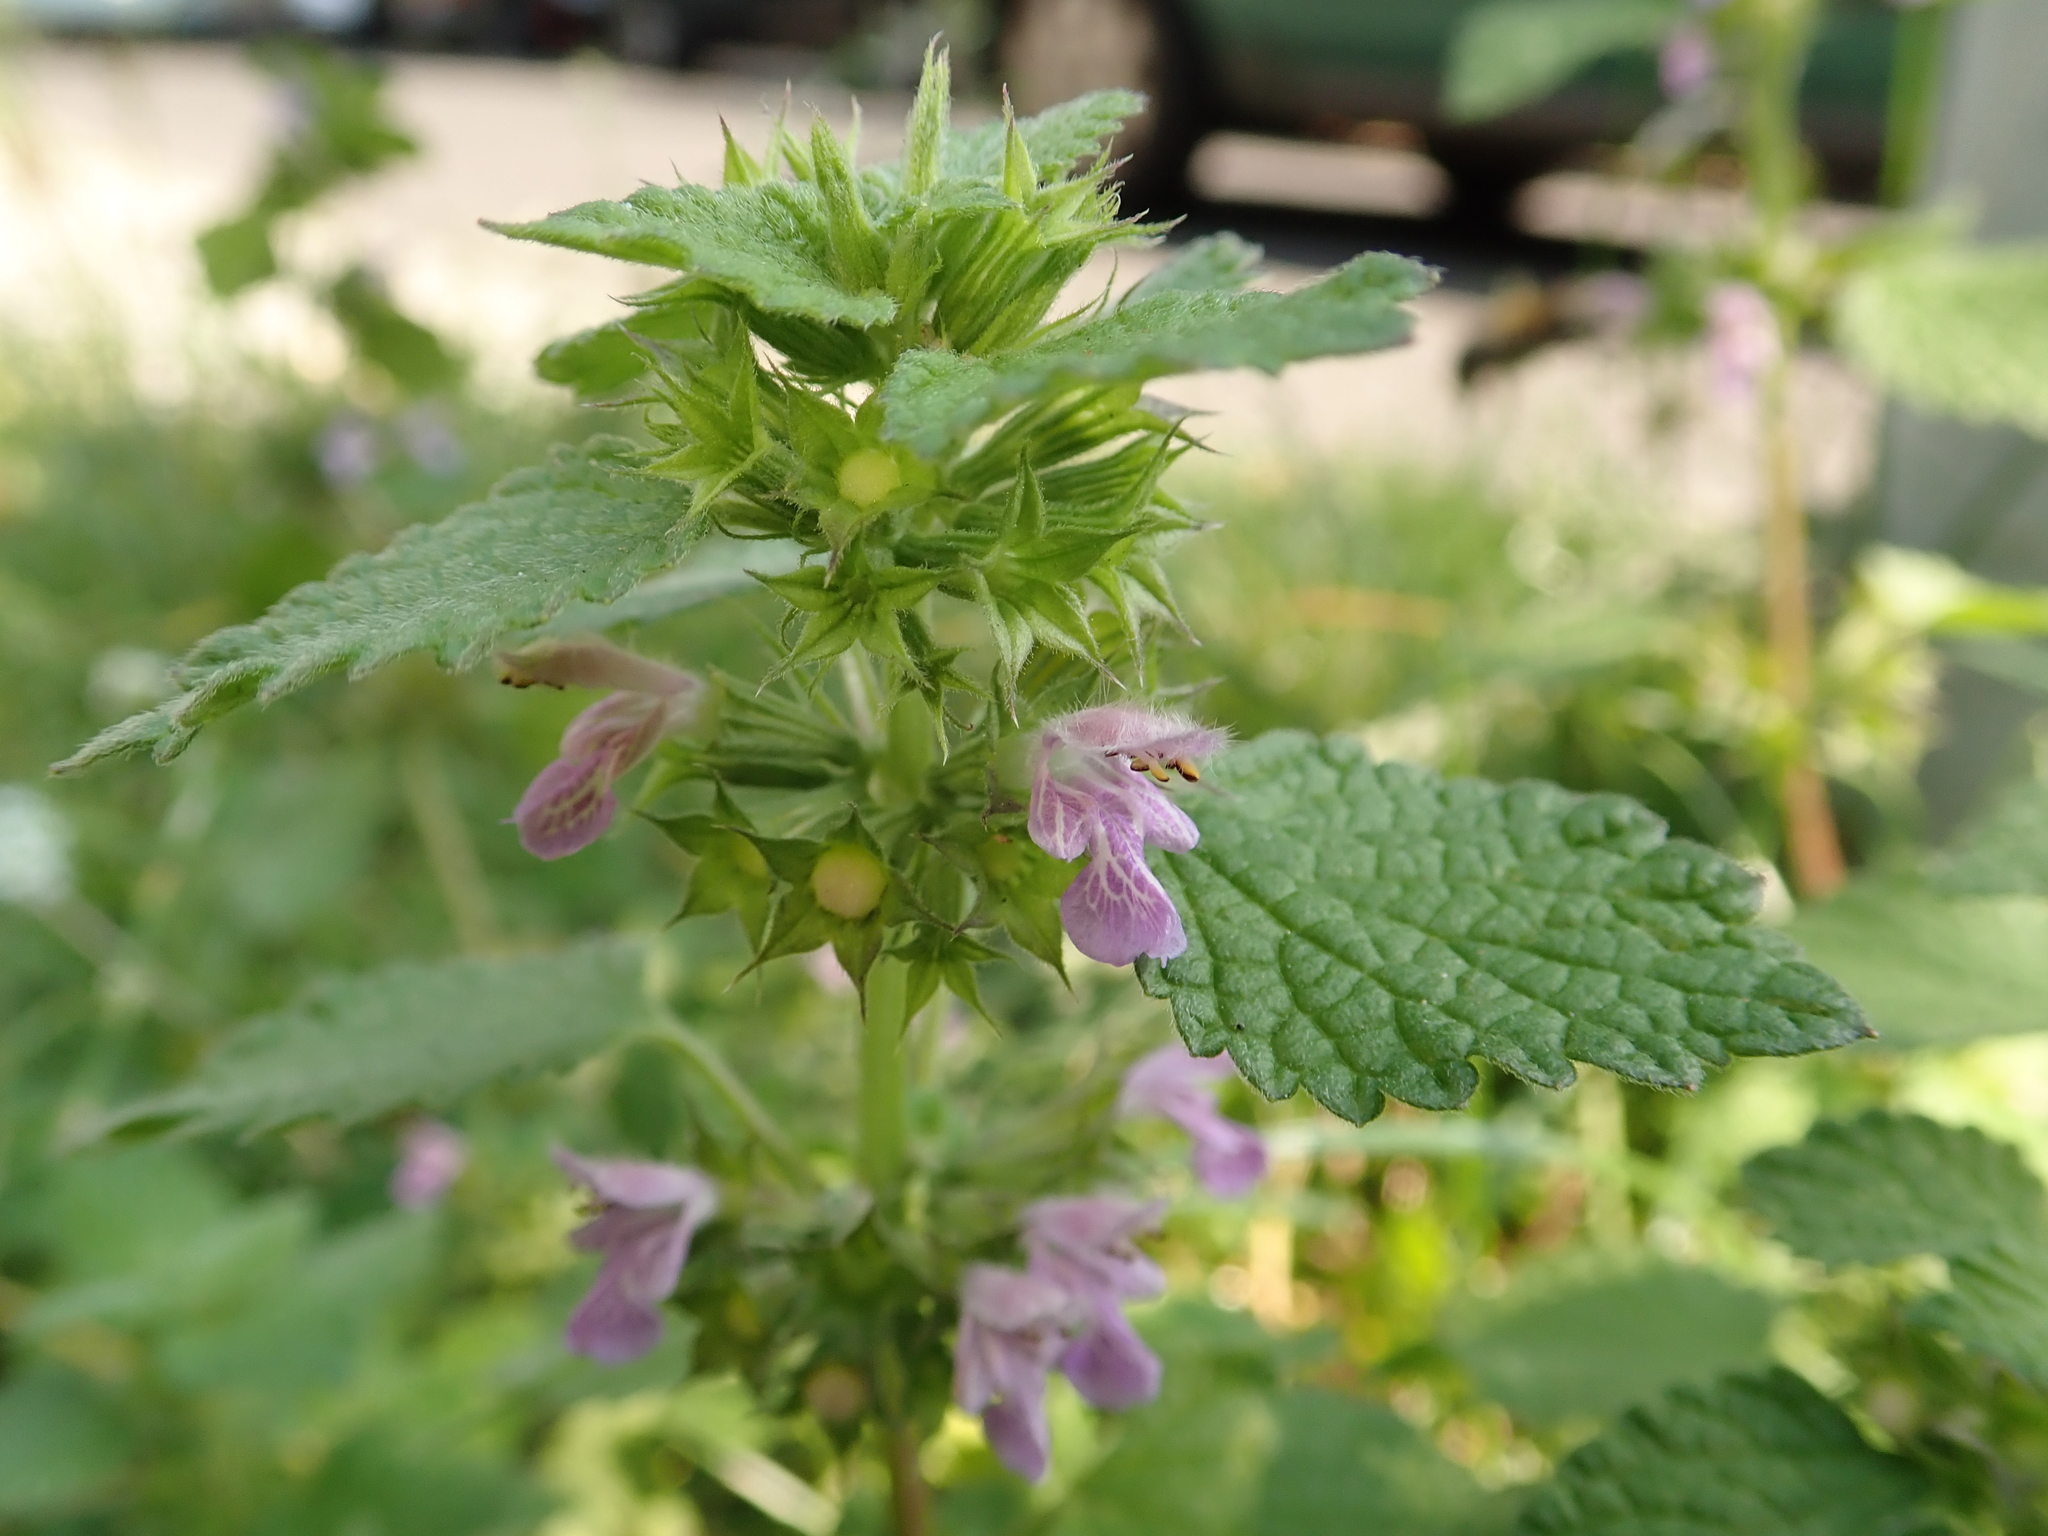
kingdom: Plantae
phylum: Tracheophyta
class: Magnoliopsida
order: Lamiales
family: Lamiaceae
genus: Ballota
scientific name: Ballota nigra
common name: Black horehound
